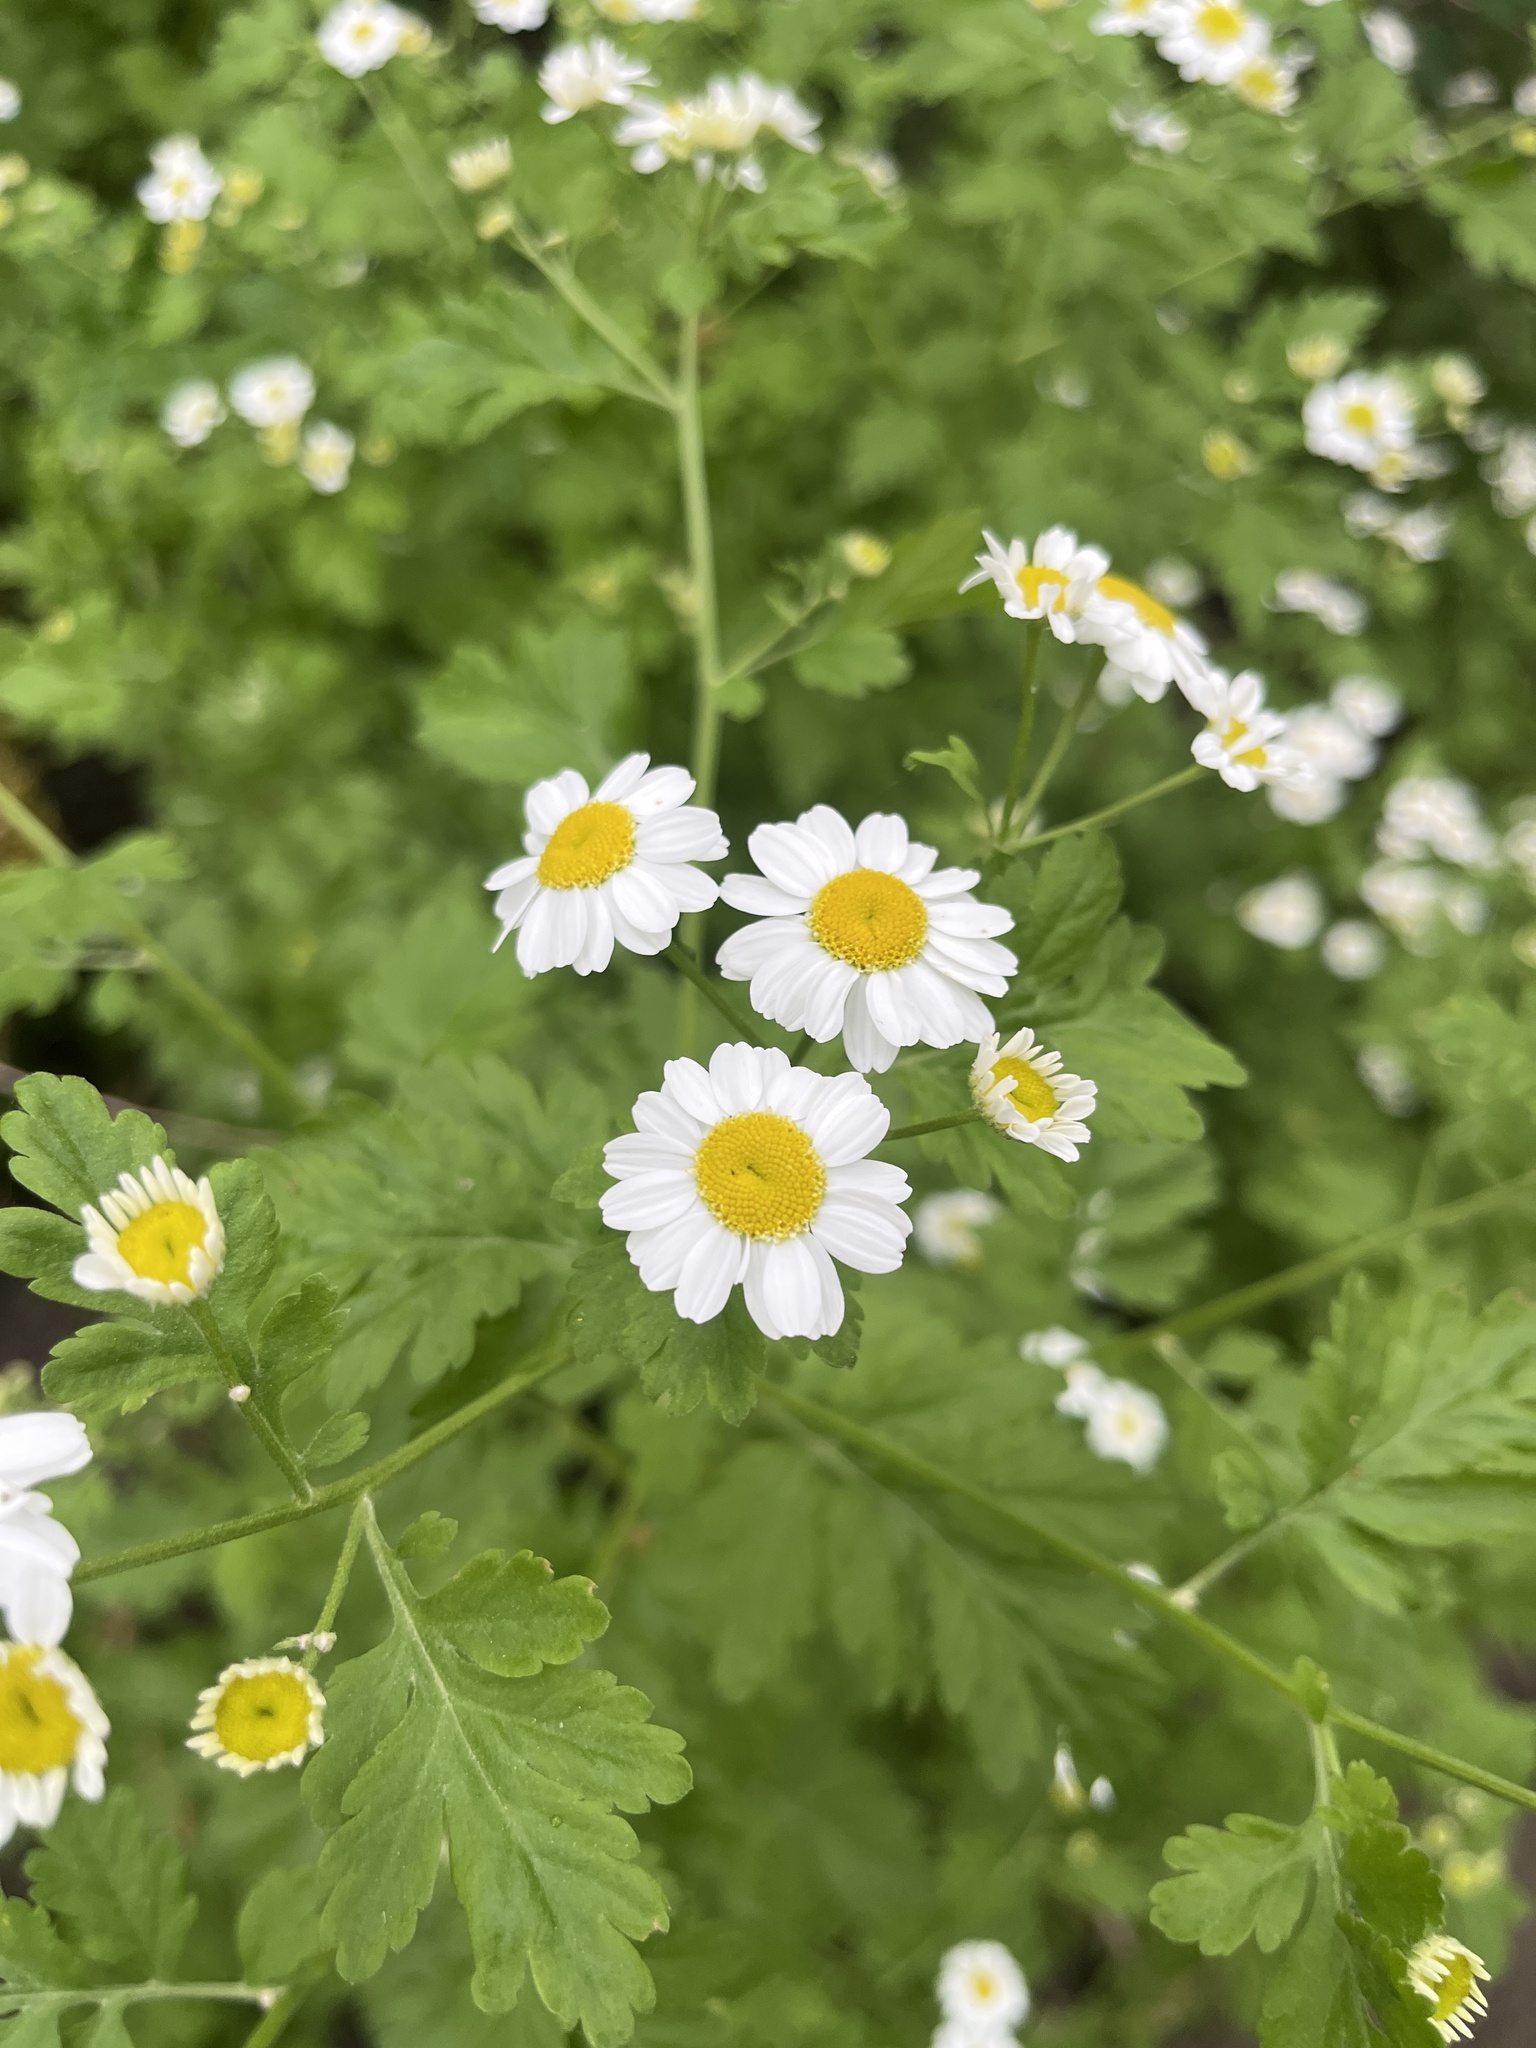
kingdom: Plantae
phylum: Tracheophyta
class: Magnoliopsida
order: Asterales
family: Asteraceae
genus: Tanacetum
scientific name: Tanacetum parthenium
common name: Feverfew
